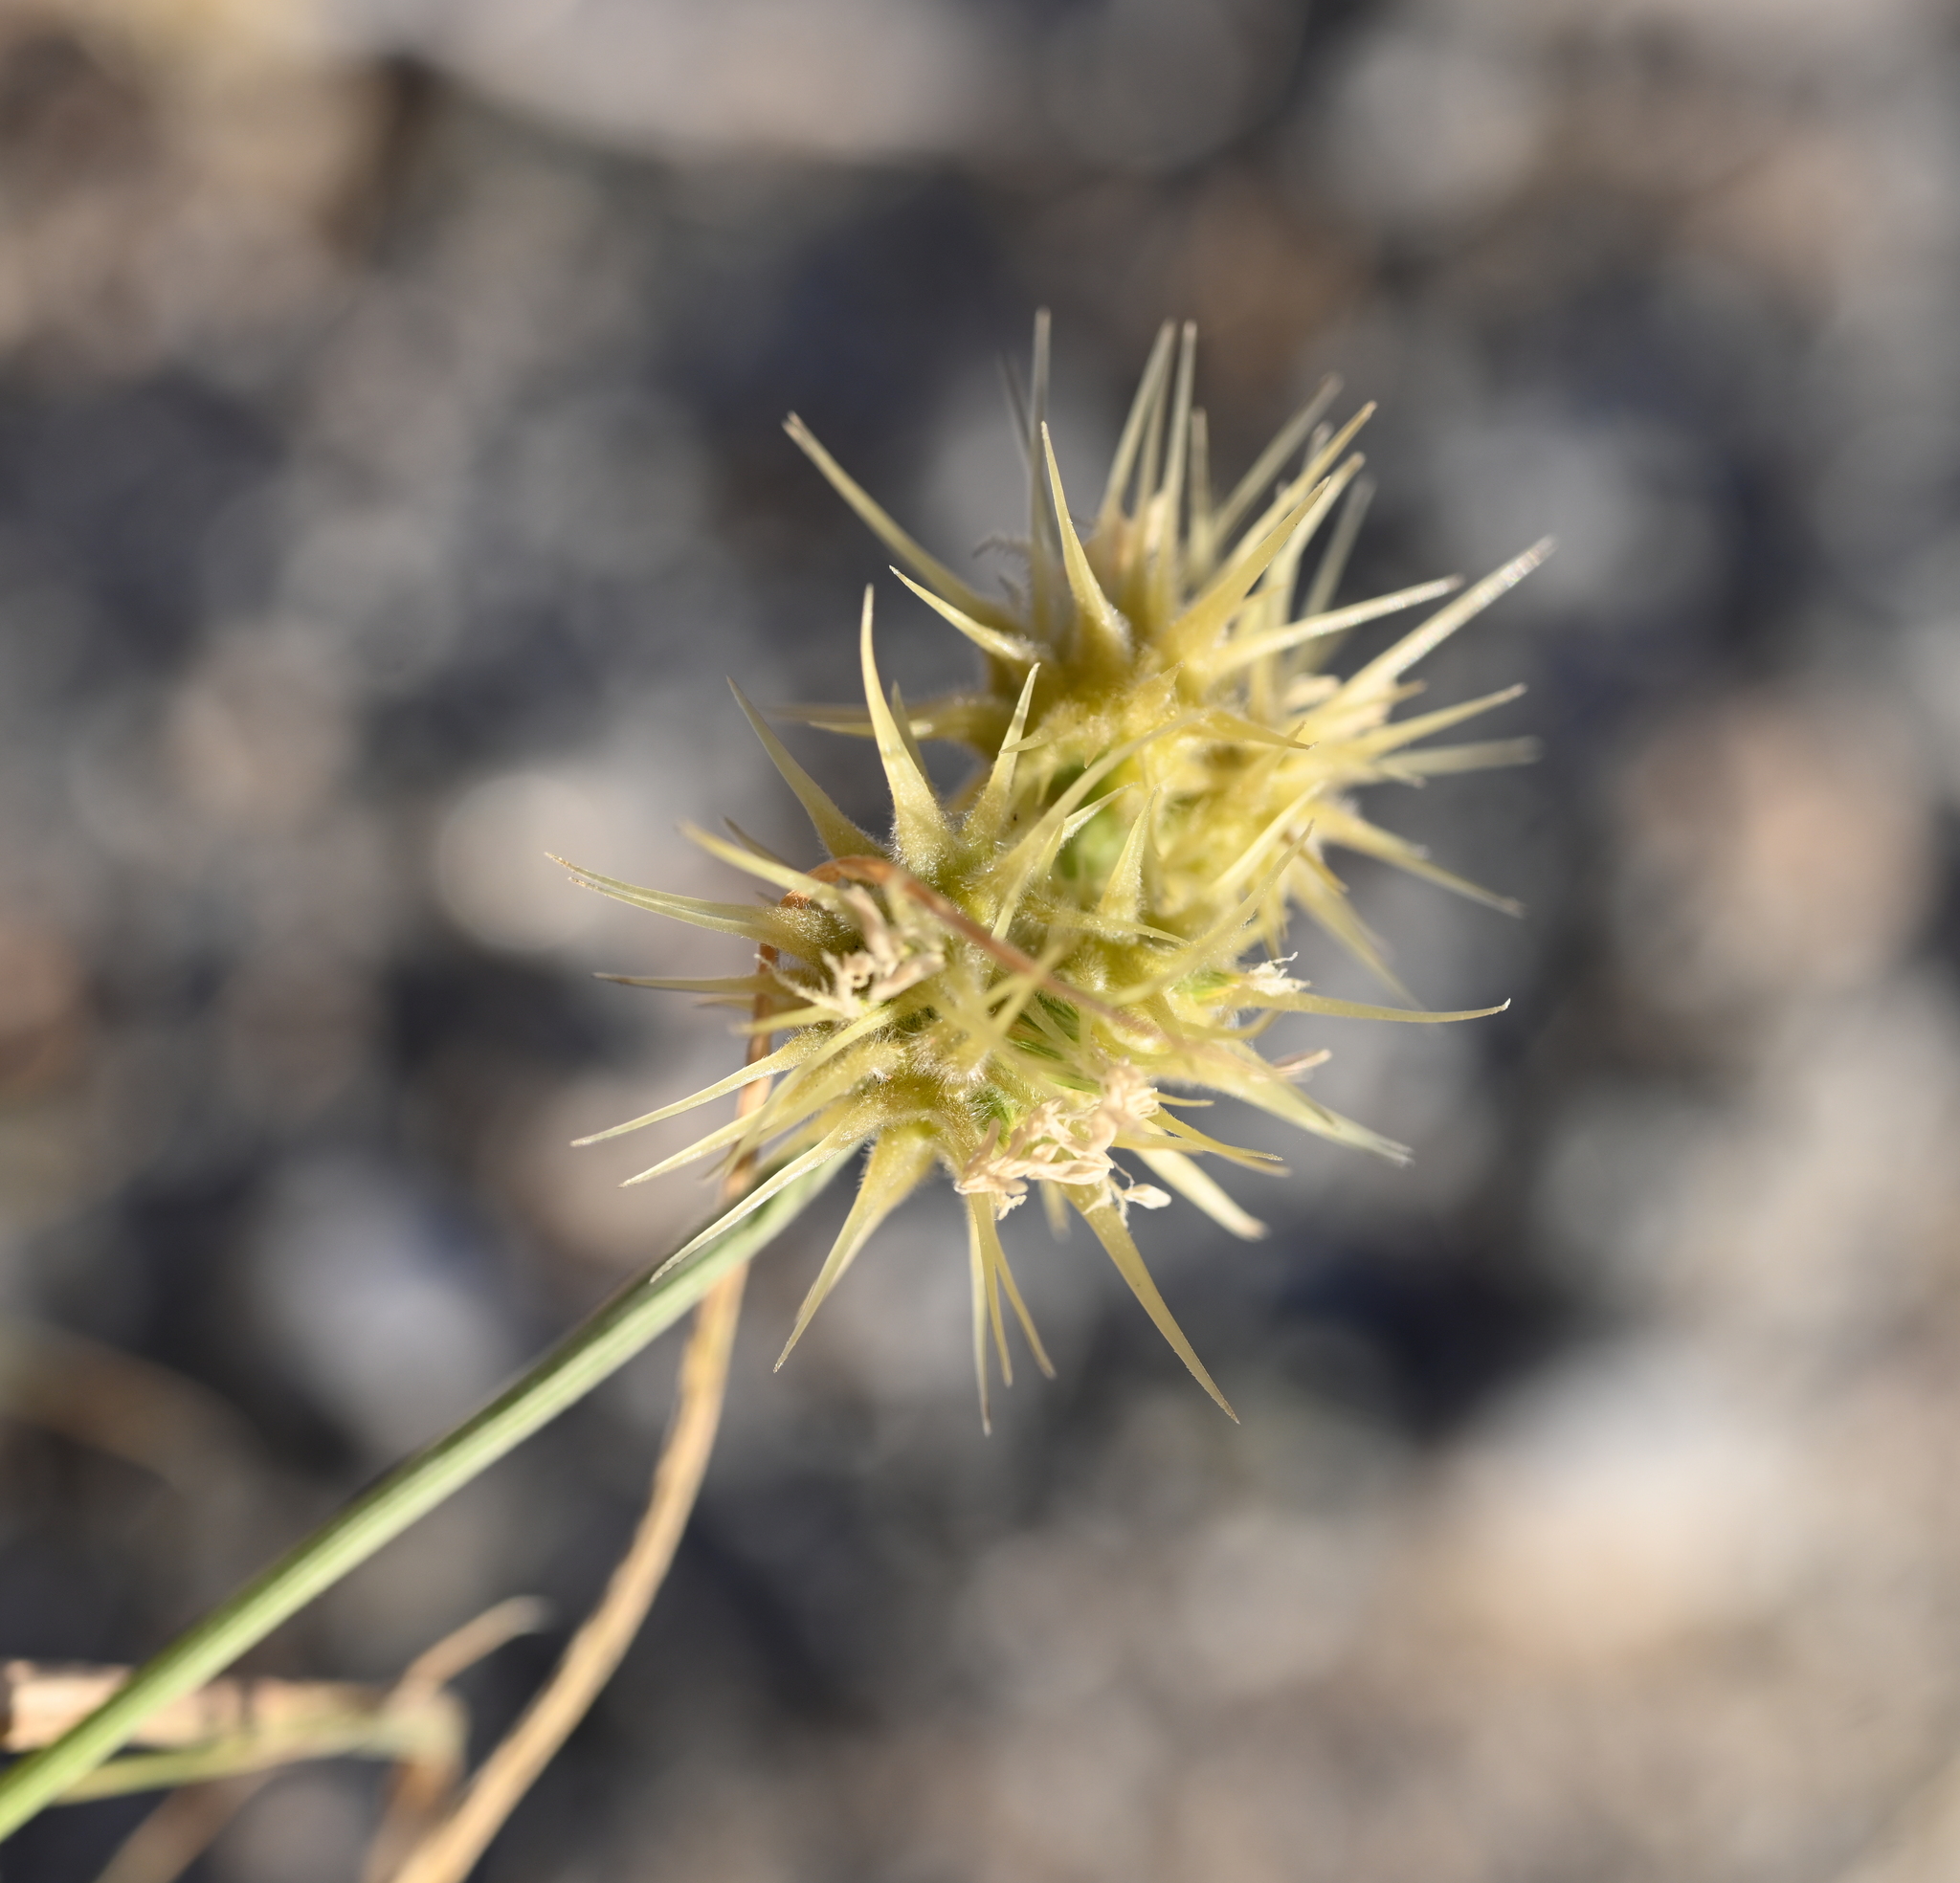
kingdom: Plantae
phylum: Tracheophyta
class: Liliopsida
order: Poales
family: Poaceae
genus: Cenchrus
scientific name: Cenchrus palmeri
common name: Giant sandbur
